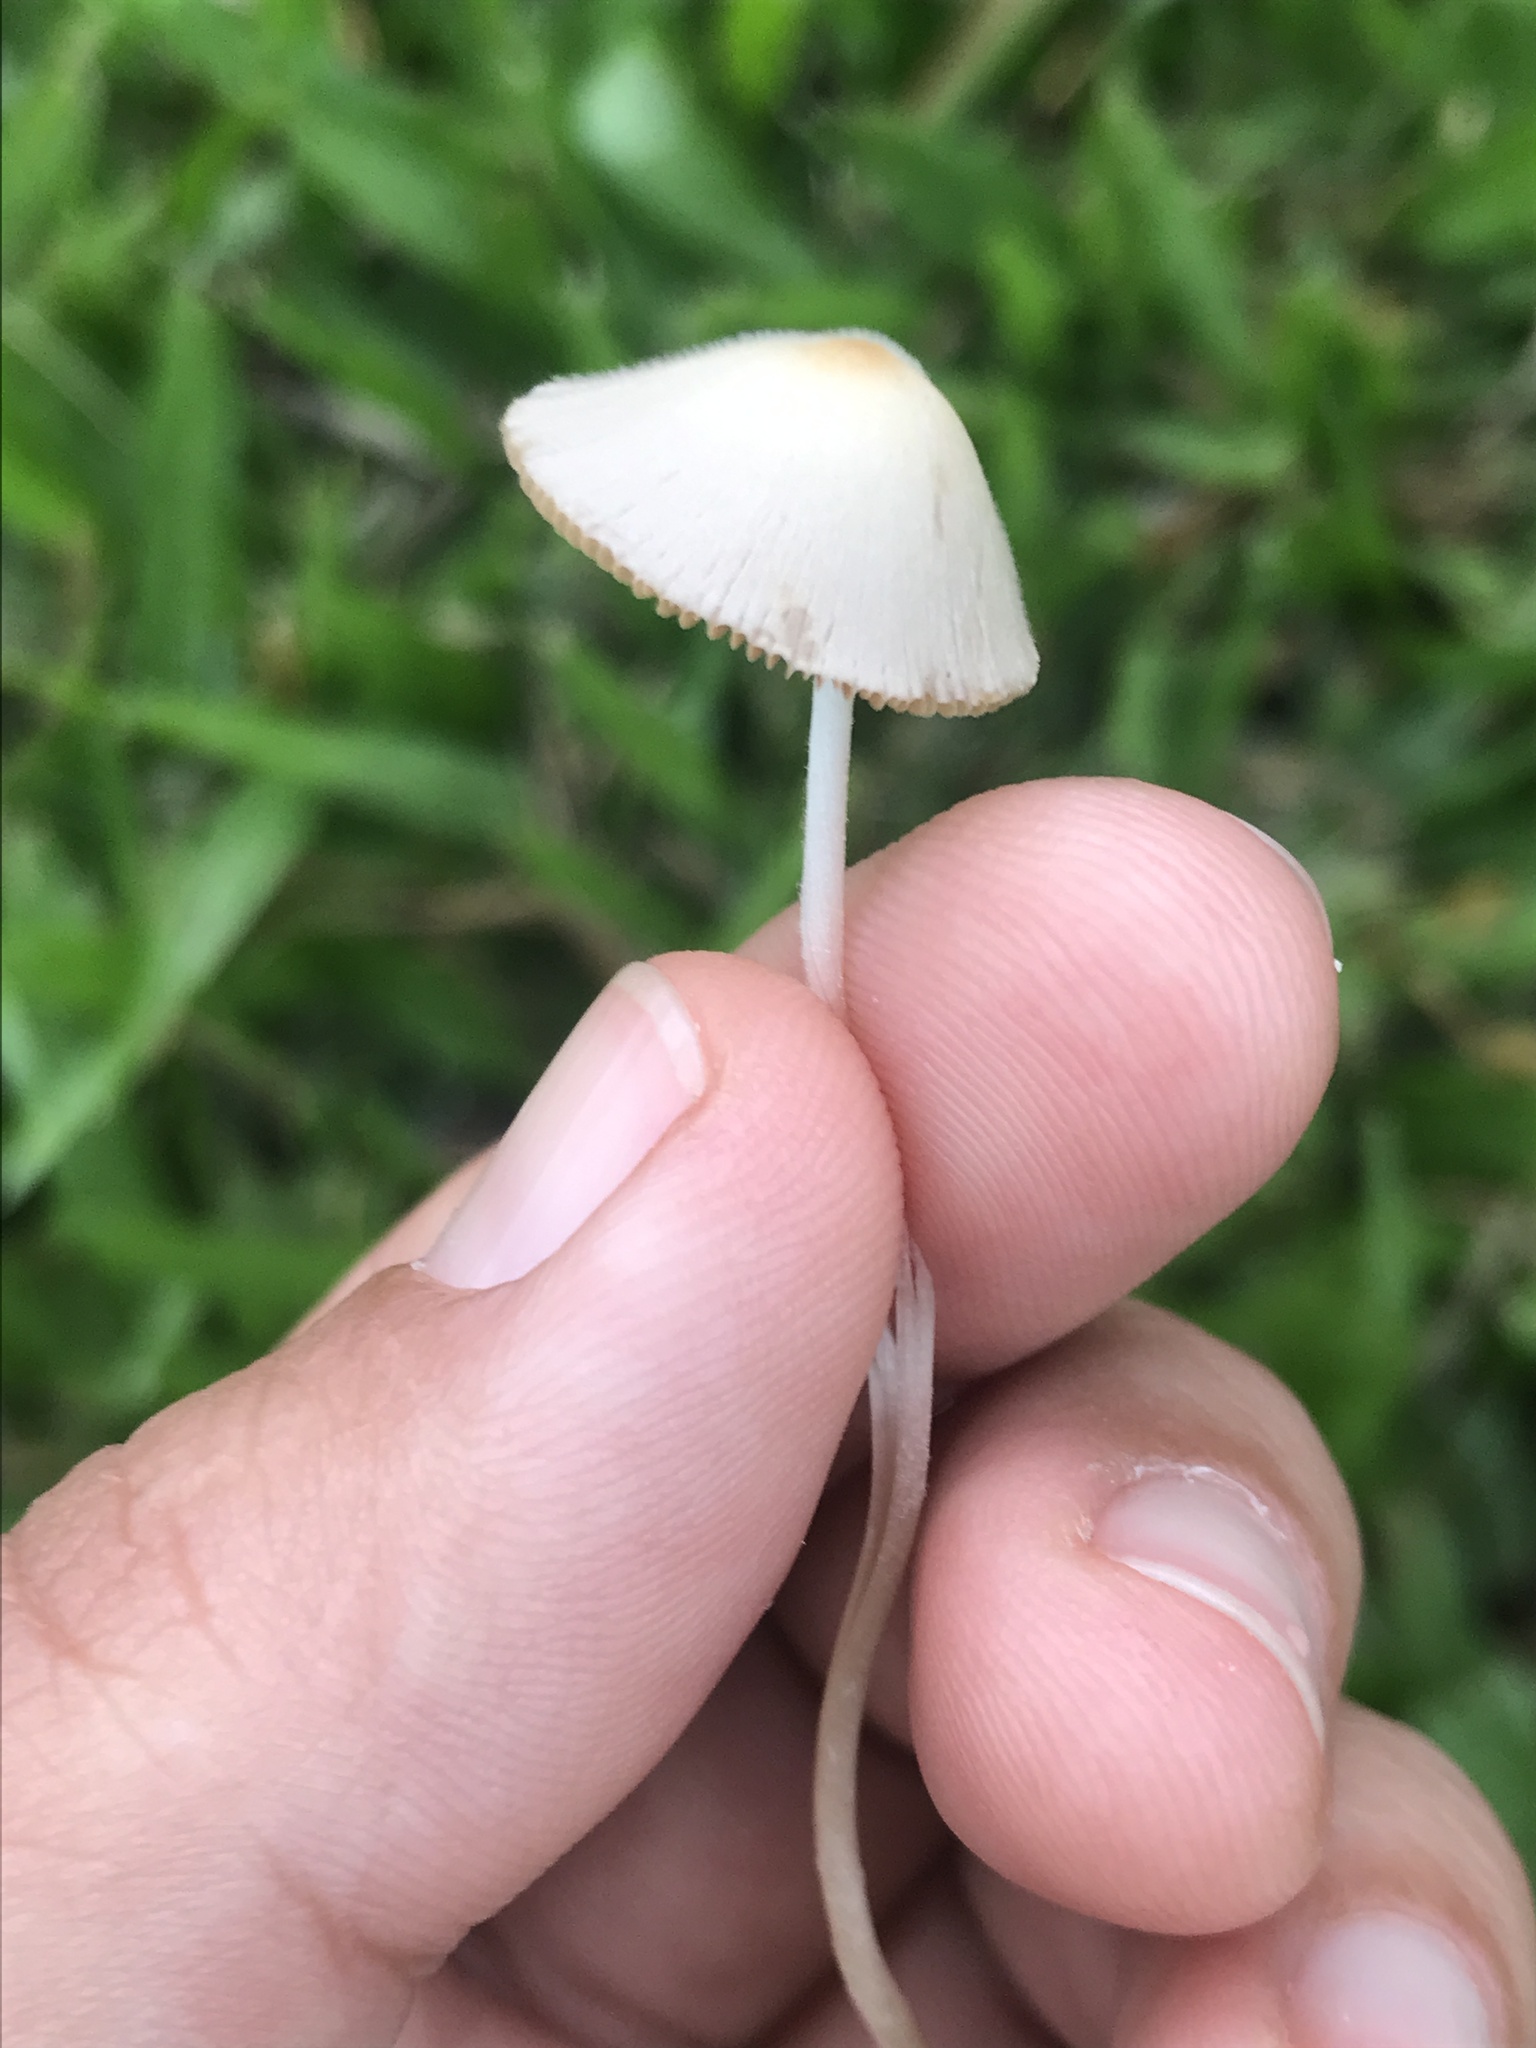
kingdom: Fungi
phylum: Basidiomycota
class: Agaricomycetes
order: Agaricales
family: Bolbitiaceae
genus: Conocybe
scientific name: Conocybe apala
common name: Milky conecap
